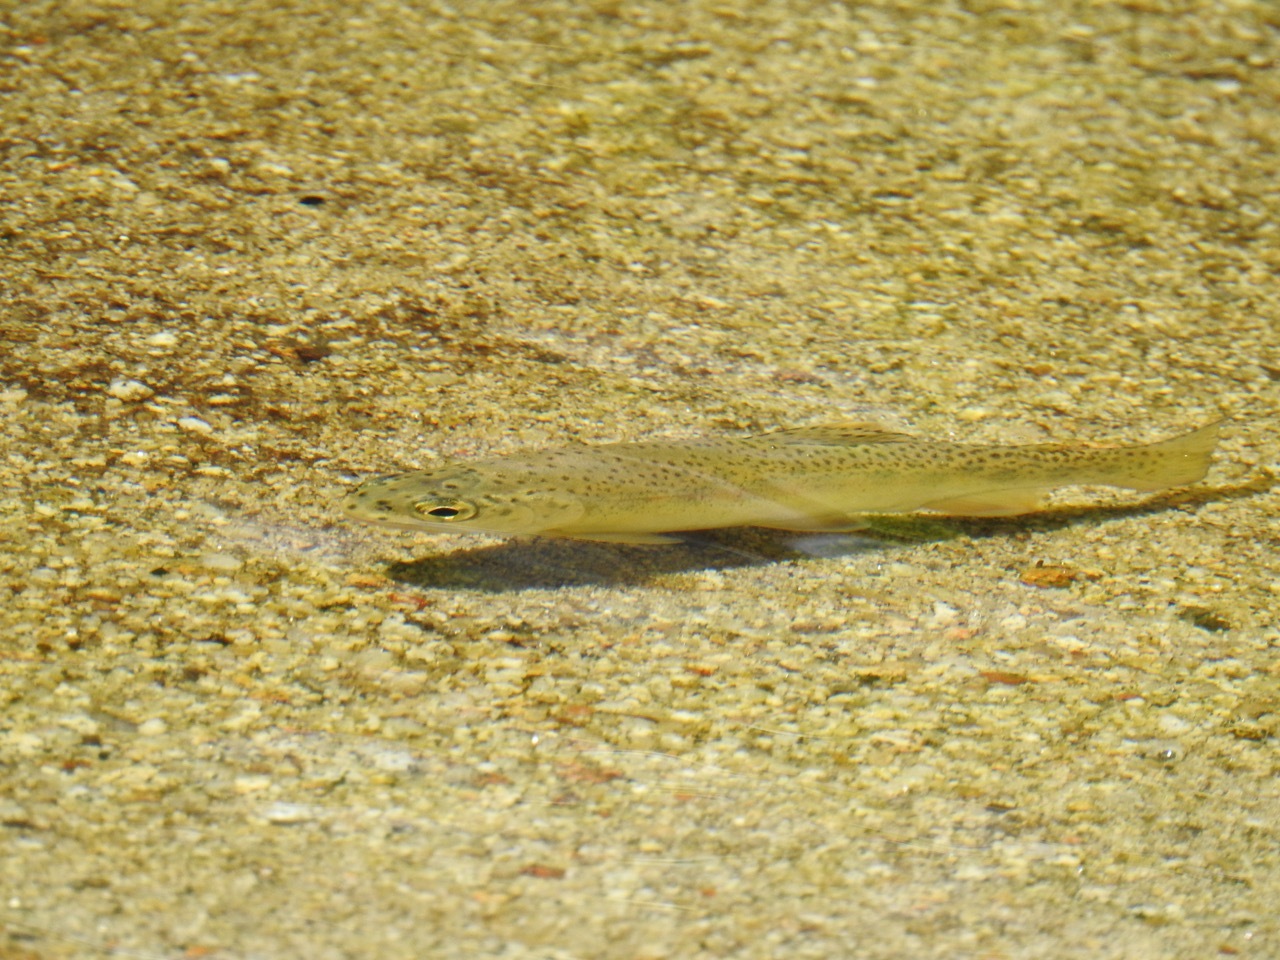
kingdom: Animalia
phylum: Chordata
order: Salmoniformes
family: Salmonidae
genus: Oncorhynchus
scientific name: Oncorhynchus
